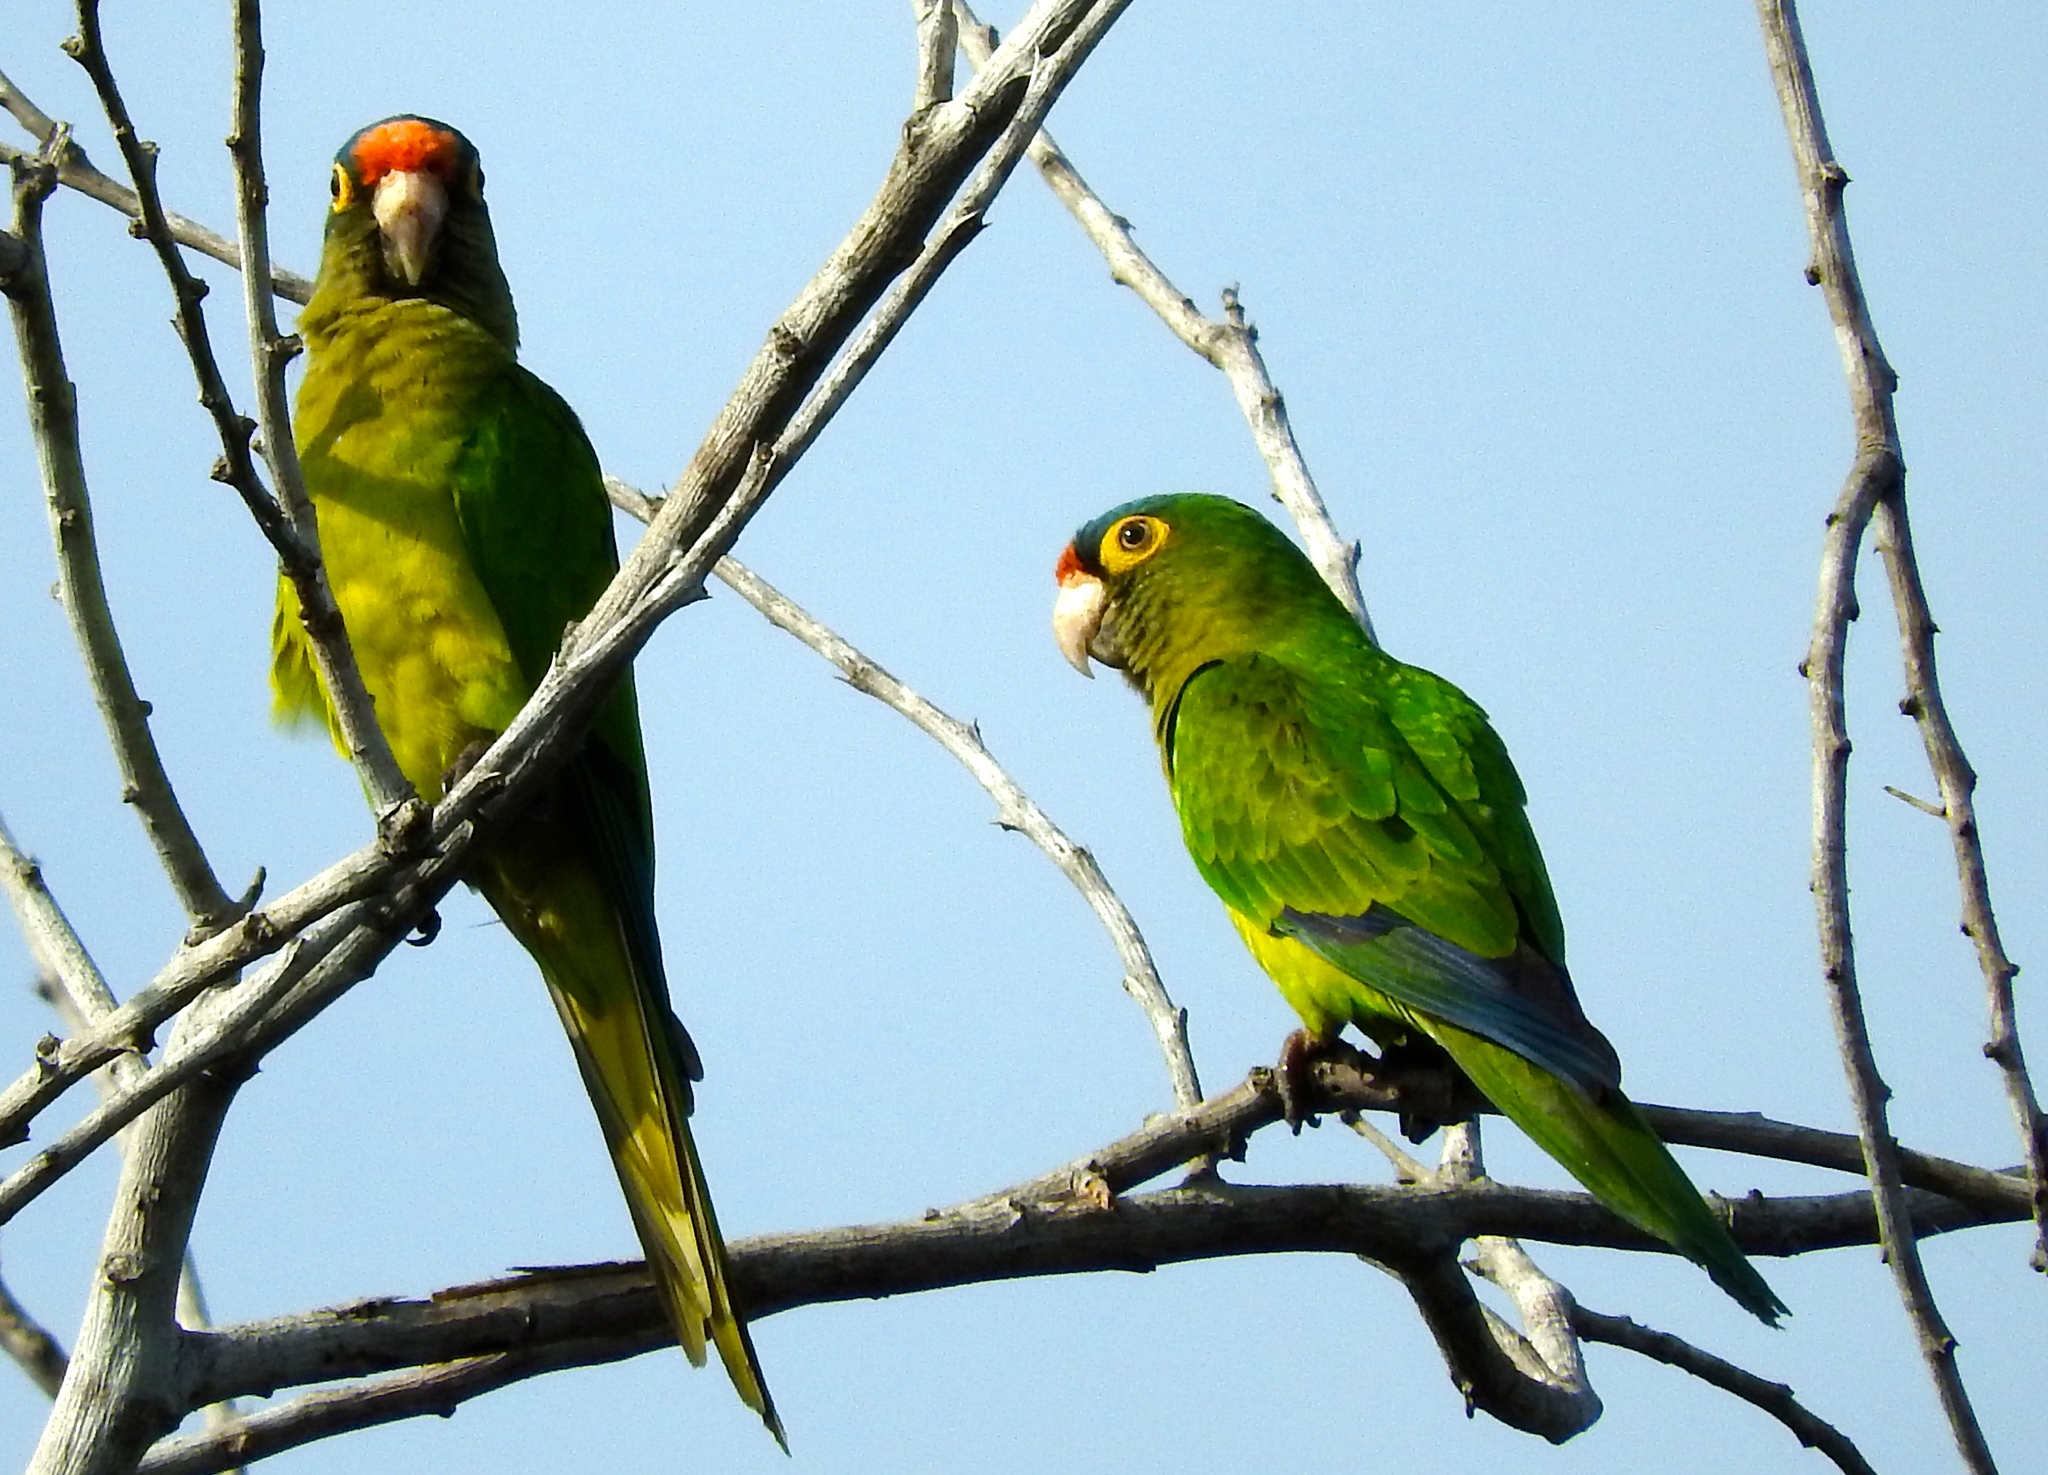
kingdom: Animalia
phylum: Chordata
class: Aves
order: Psittaciformes
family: Psittacidae
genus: Aratinga
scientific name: Aratinga canicularis
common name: Orange-fronted parakeet
